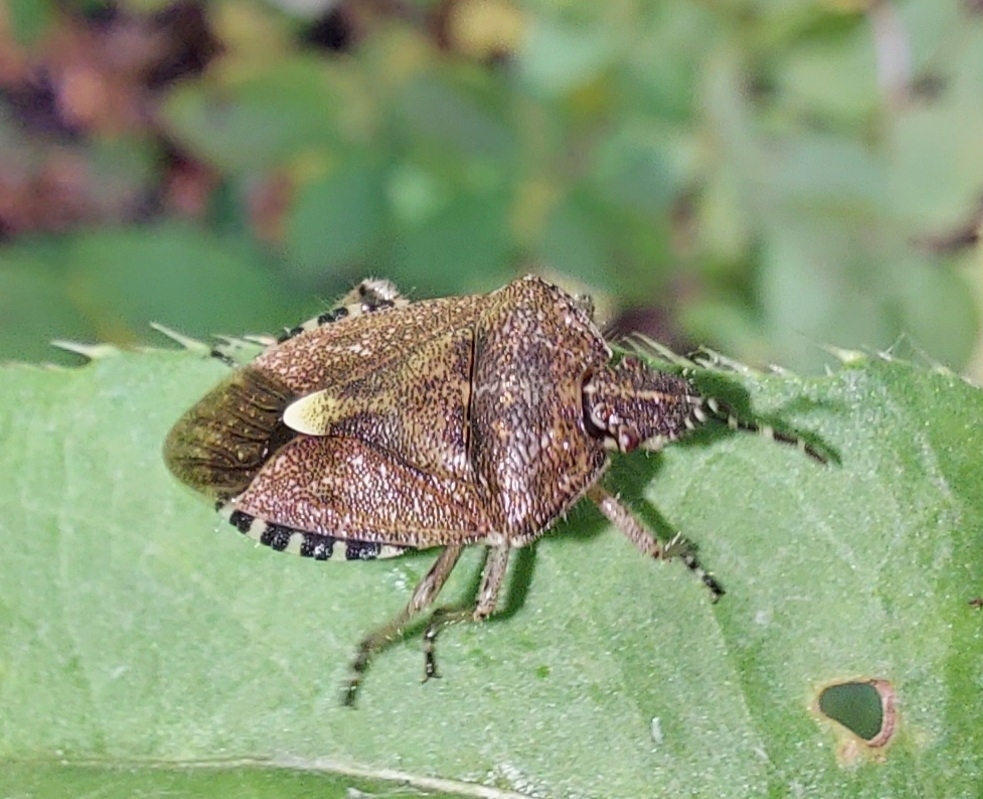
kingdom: Animalia
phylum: Arthropoda
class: Insecta
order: Hemiptera
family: Pentatomidae
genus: Dolycoris
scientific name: Dolycoris baccarum
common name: Sloe bug
